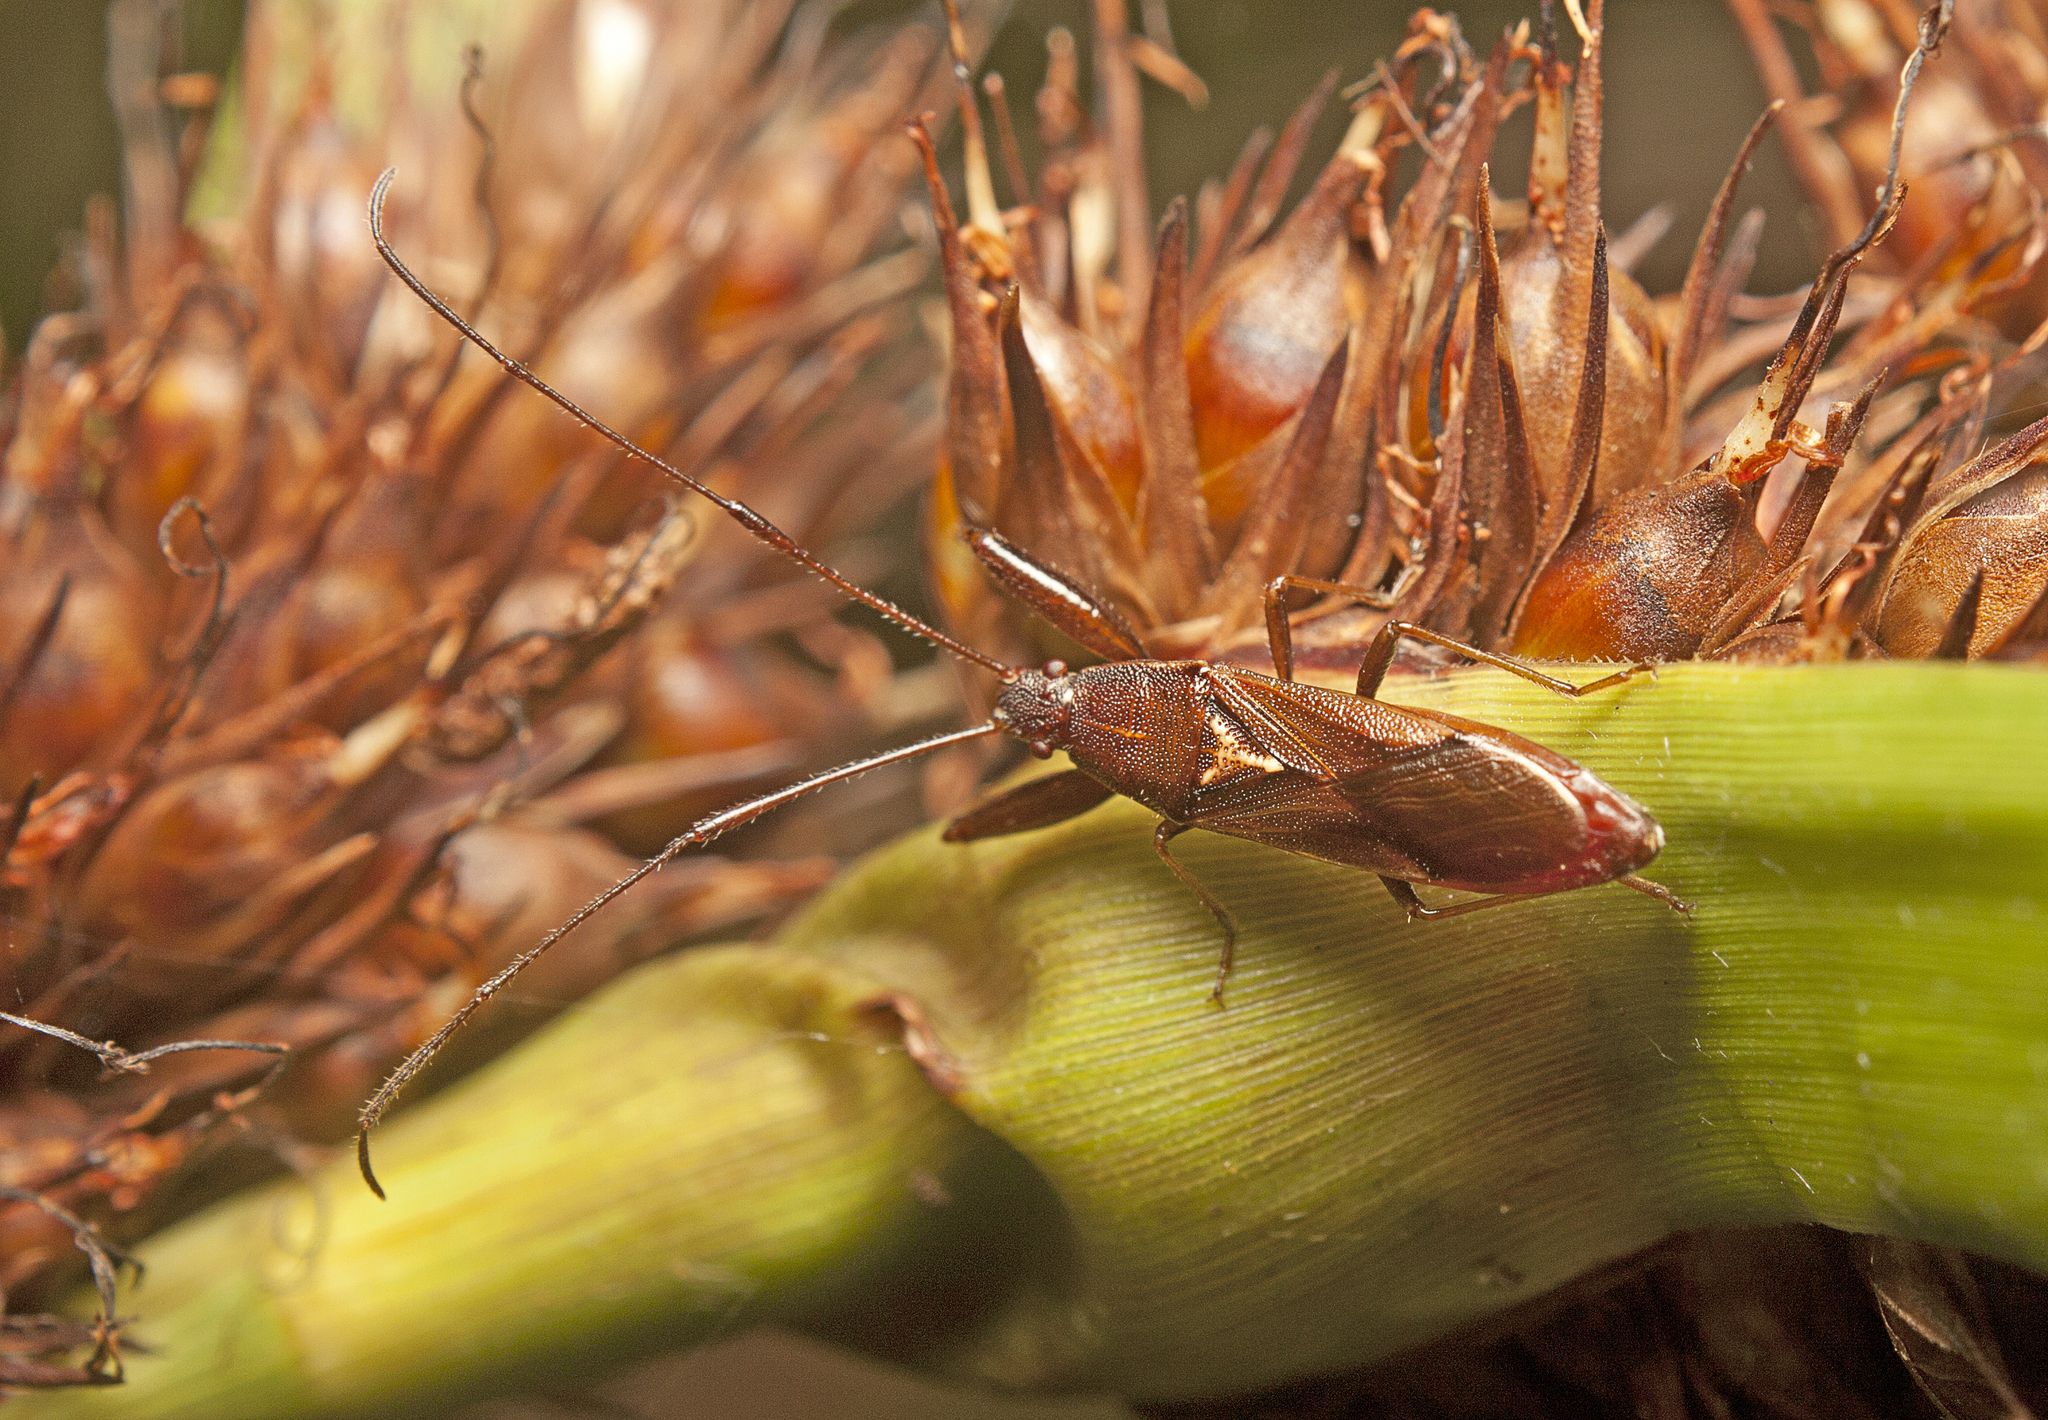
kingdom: Animalia
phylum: Arthropoda
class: Insecta
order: Hemiptera
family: Pachygronthidae
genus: Pachygrontha
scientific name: Pachygrontha robusta
